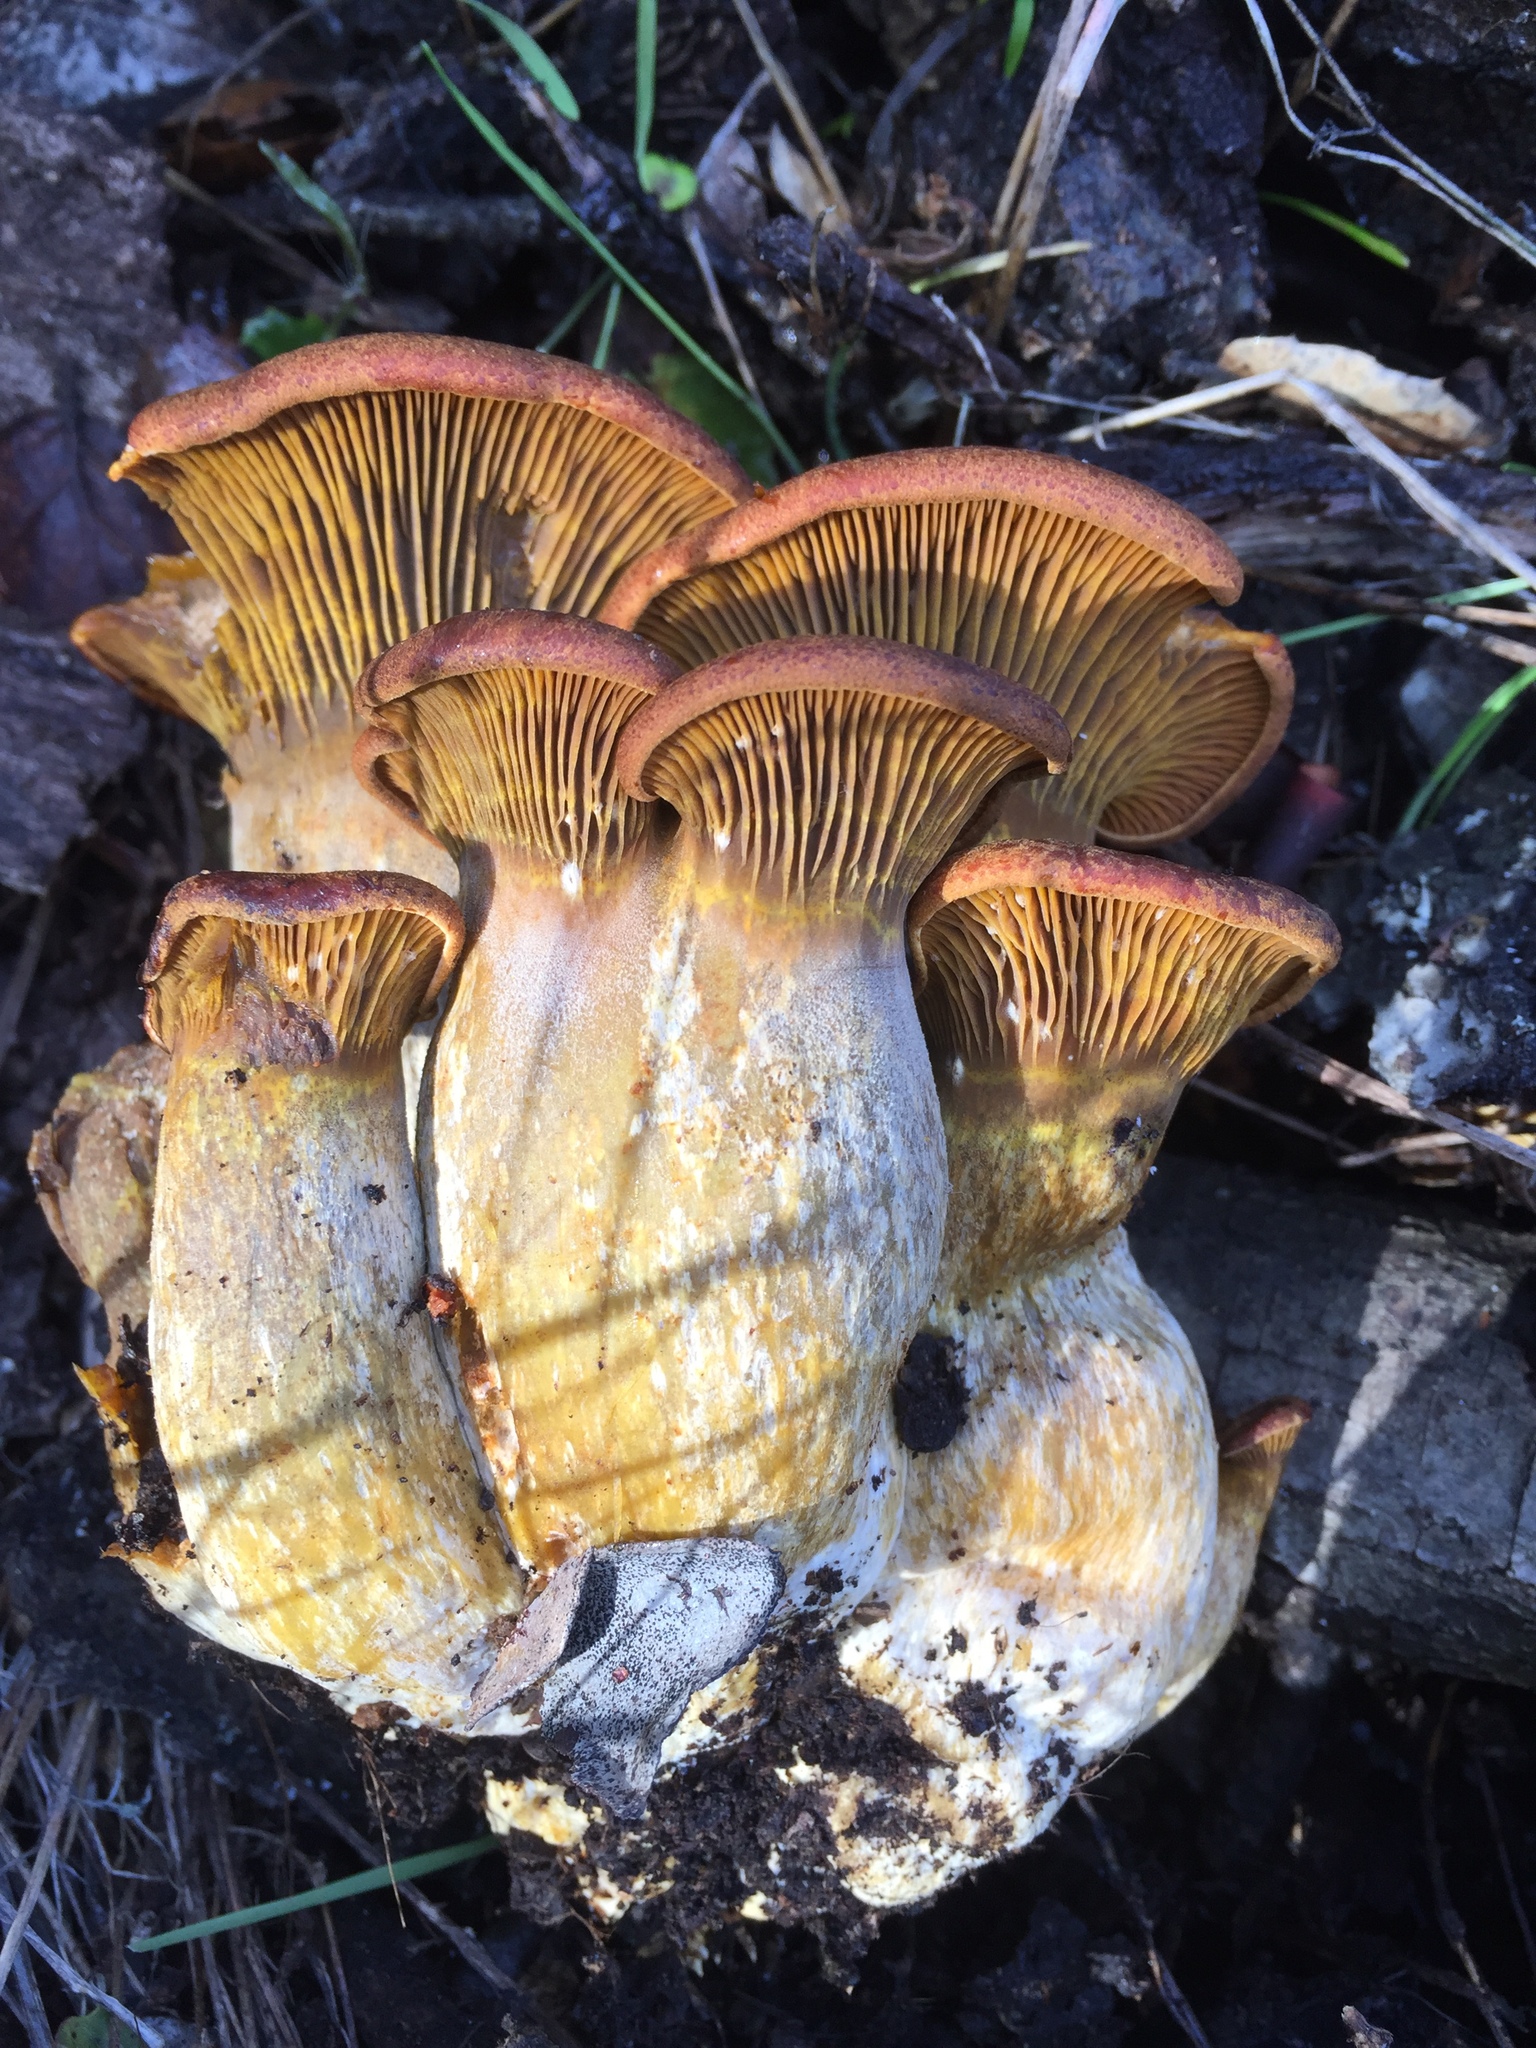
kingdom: Fungi
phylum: Basidiomycota
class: Agaricomycetes
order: Agaricales
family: Omphalotaceae
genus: Omphalotus
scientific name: Omphalotus olivascens
